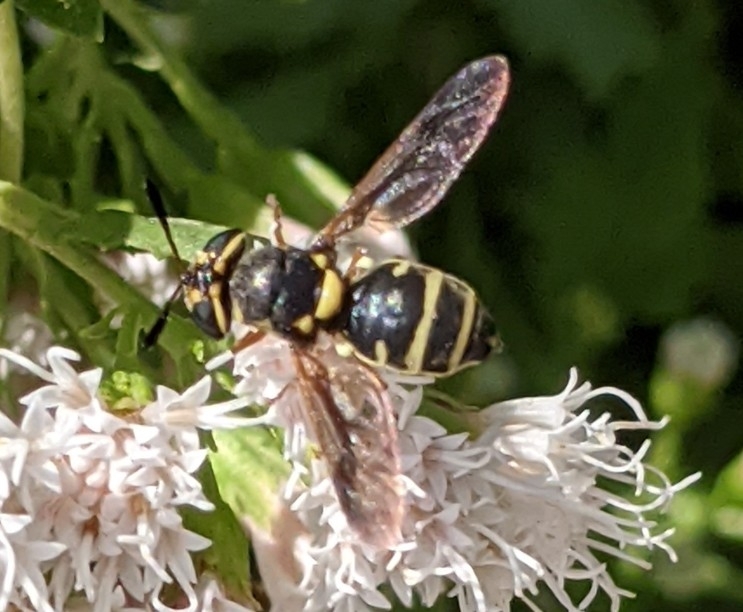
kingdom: Animalia
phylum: Arthropoda
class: Insecta
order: Diptera
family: Stratiomyidae
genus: Hoplitimyia
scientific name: Hoplitimyia constans
